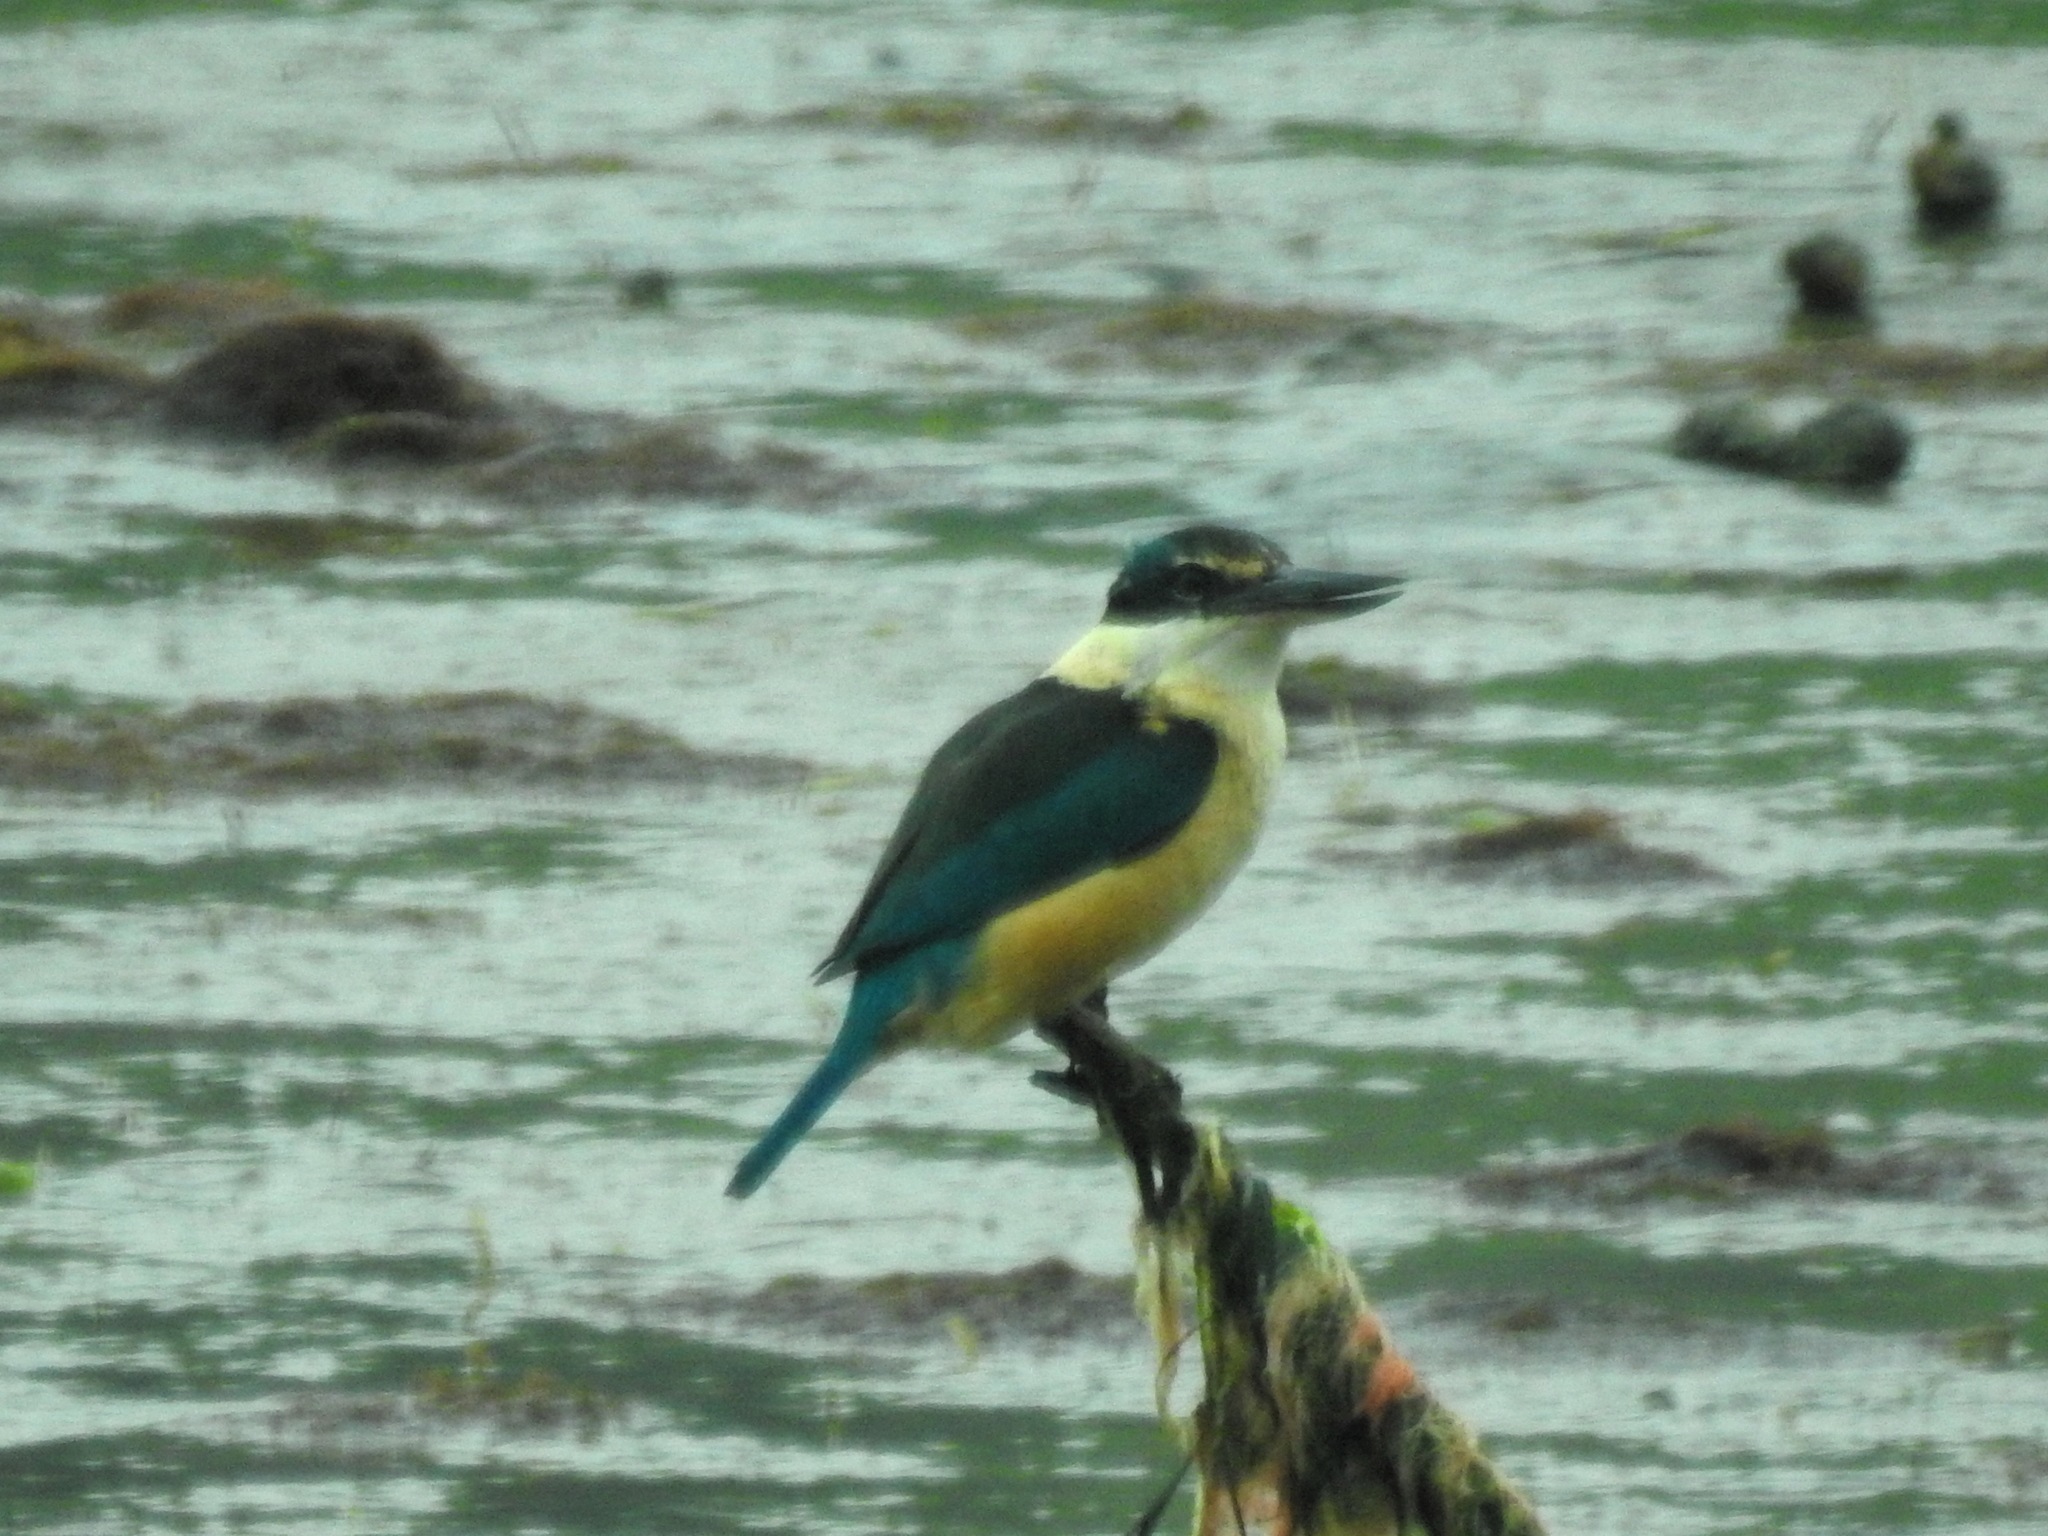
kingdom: Animalia
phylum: Chordata
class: Aves
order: Coraciiformes
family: Alcedinidae
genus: Todiramphus
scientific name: Todiramphus sanctus
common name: Sacred kingfisher
